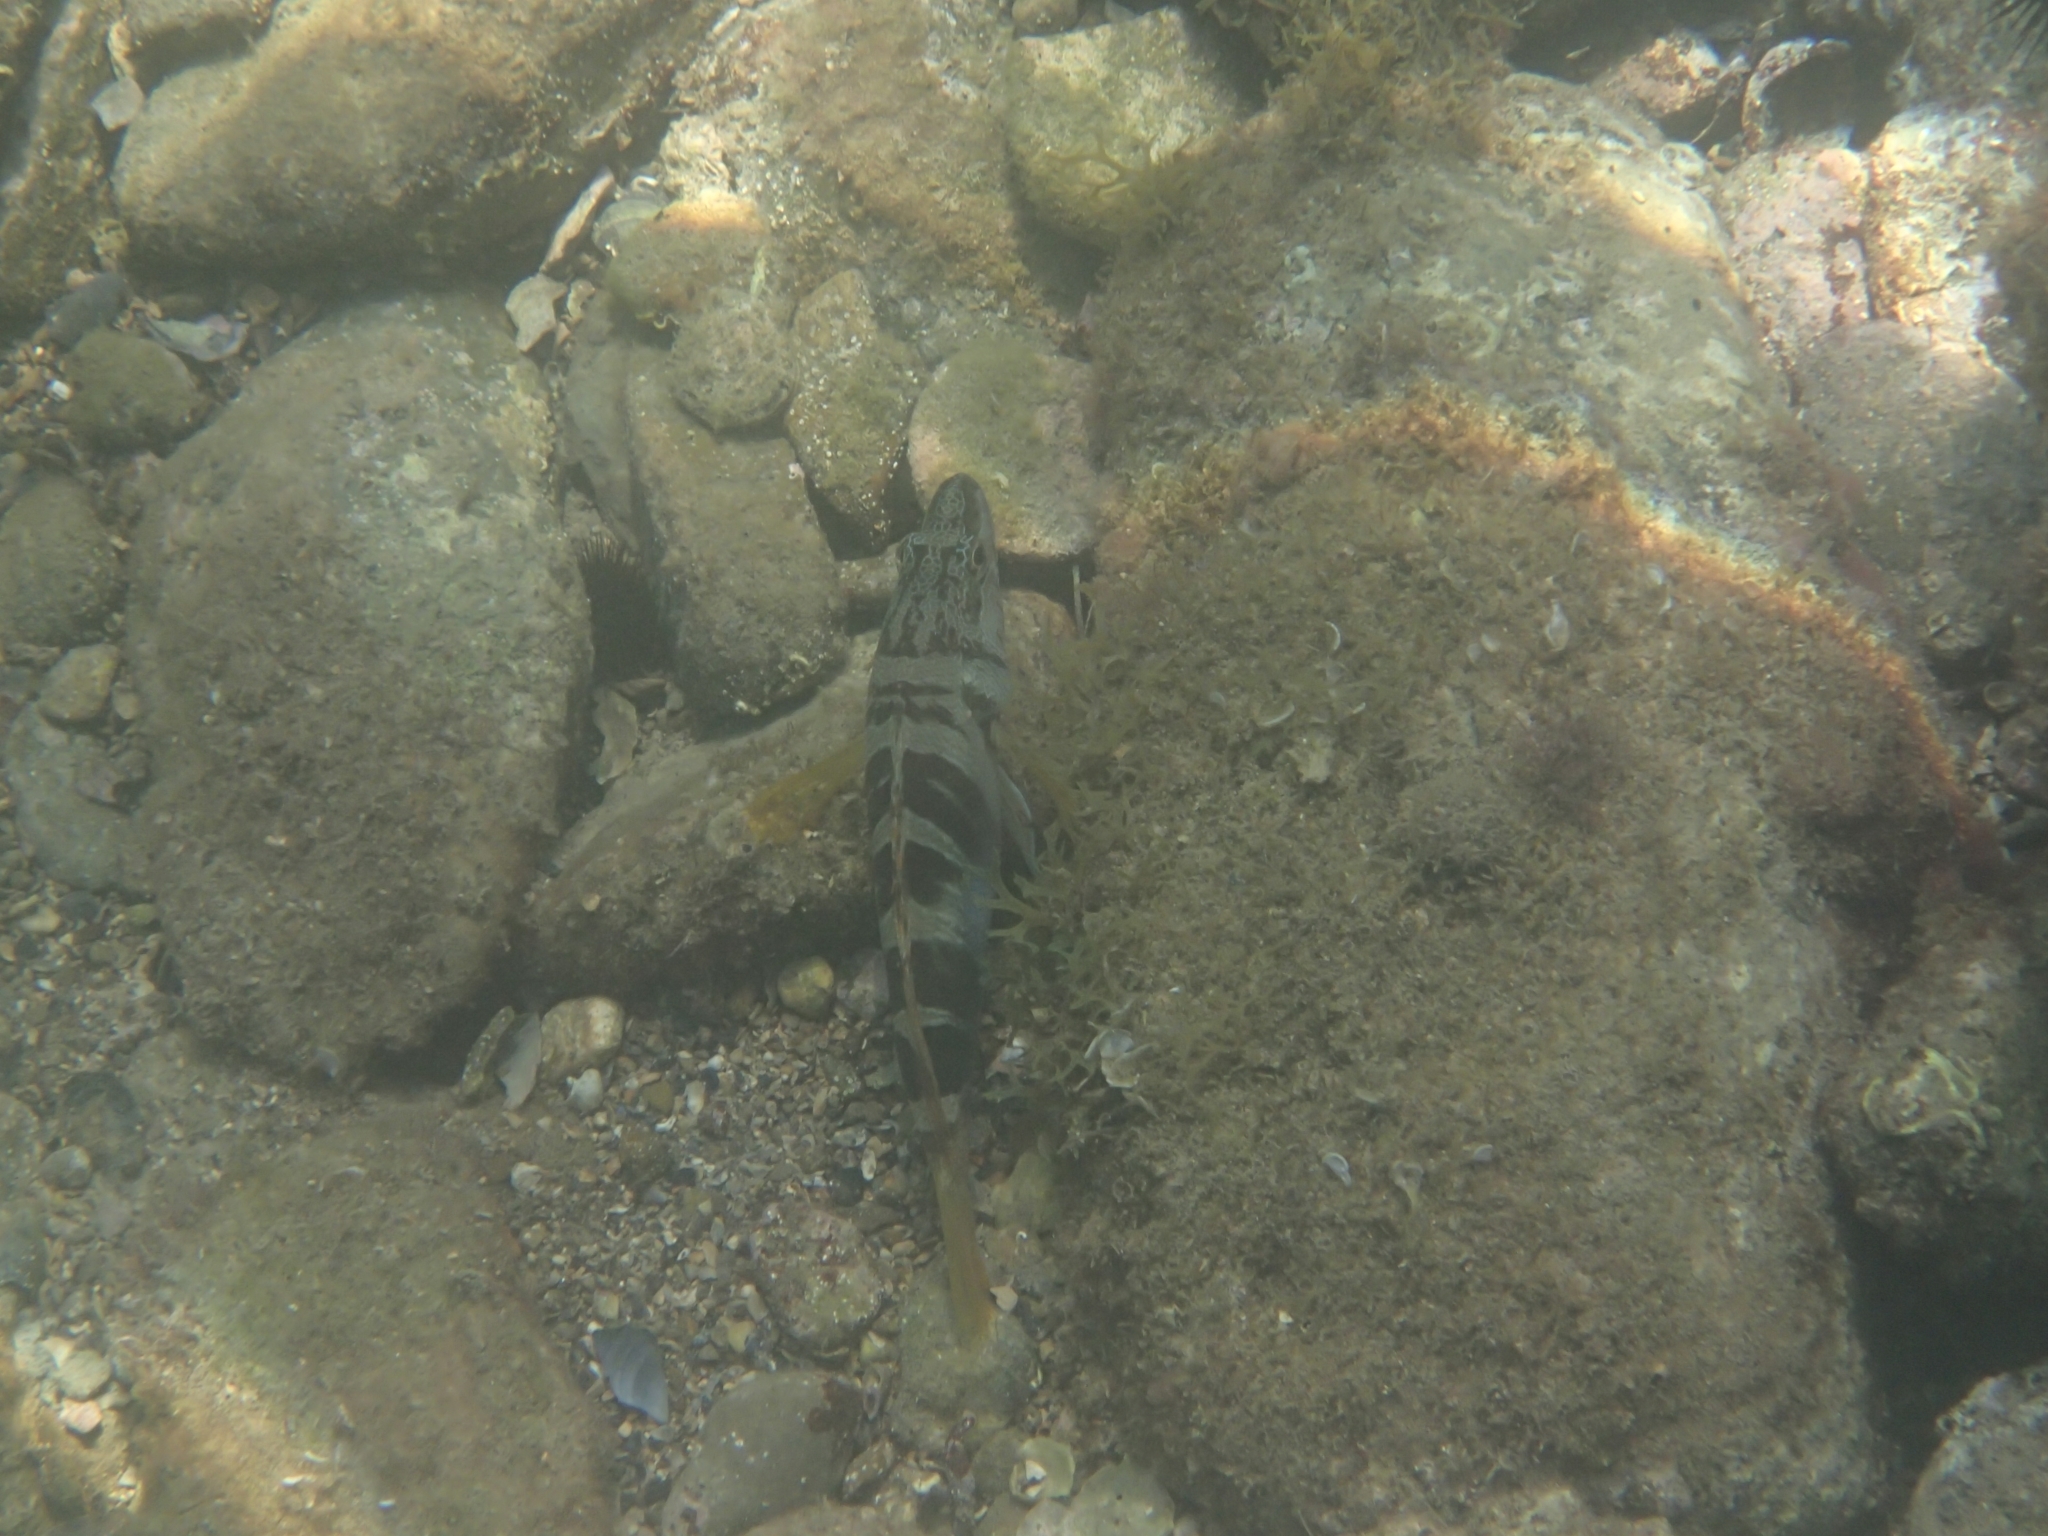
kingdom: Animalia
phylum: Chordata
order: Perciformes
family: Serranidae
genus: Serranus
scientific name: Serranus scriba
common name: Painted comber
